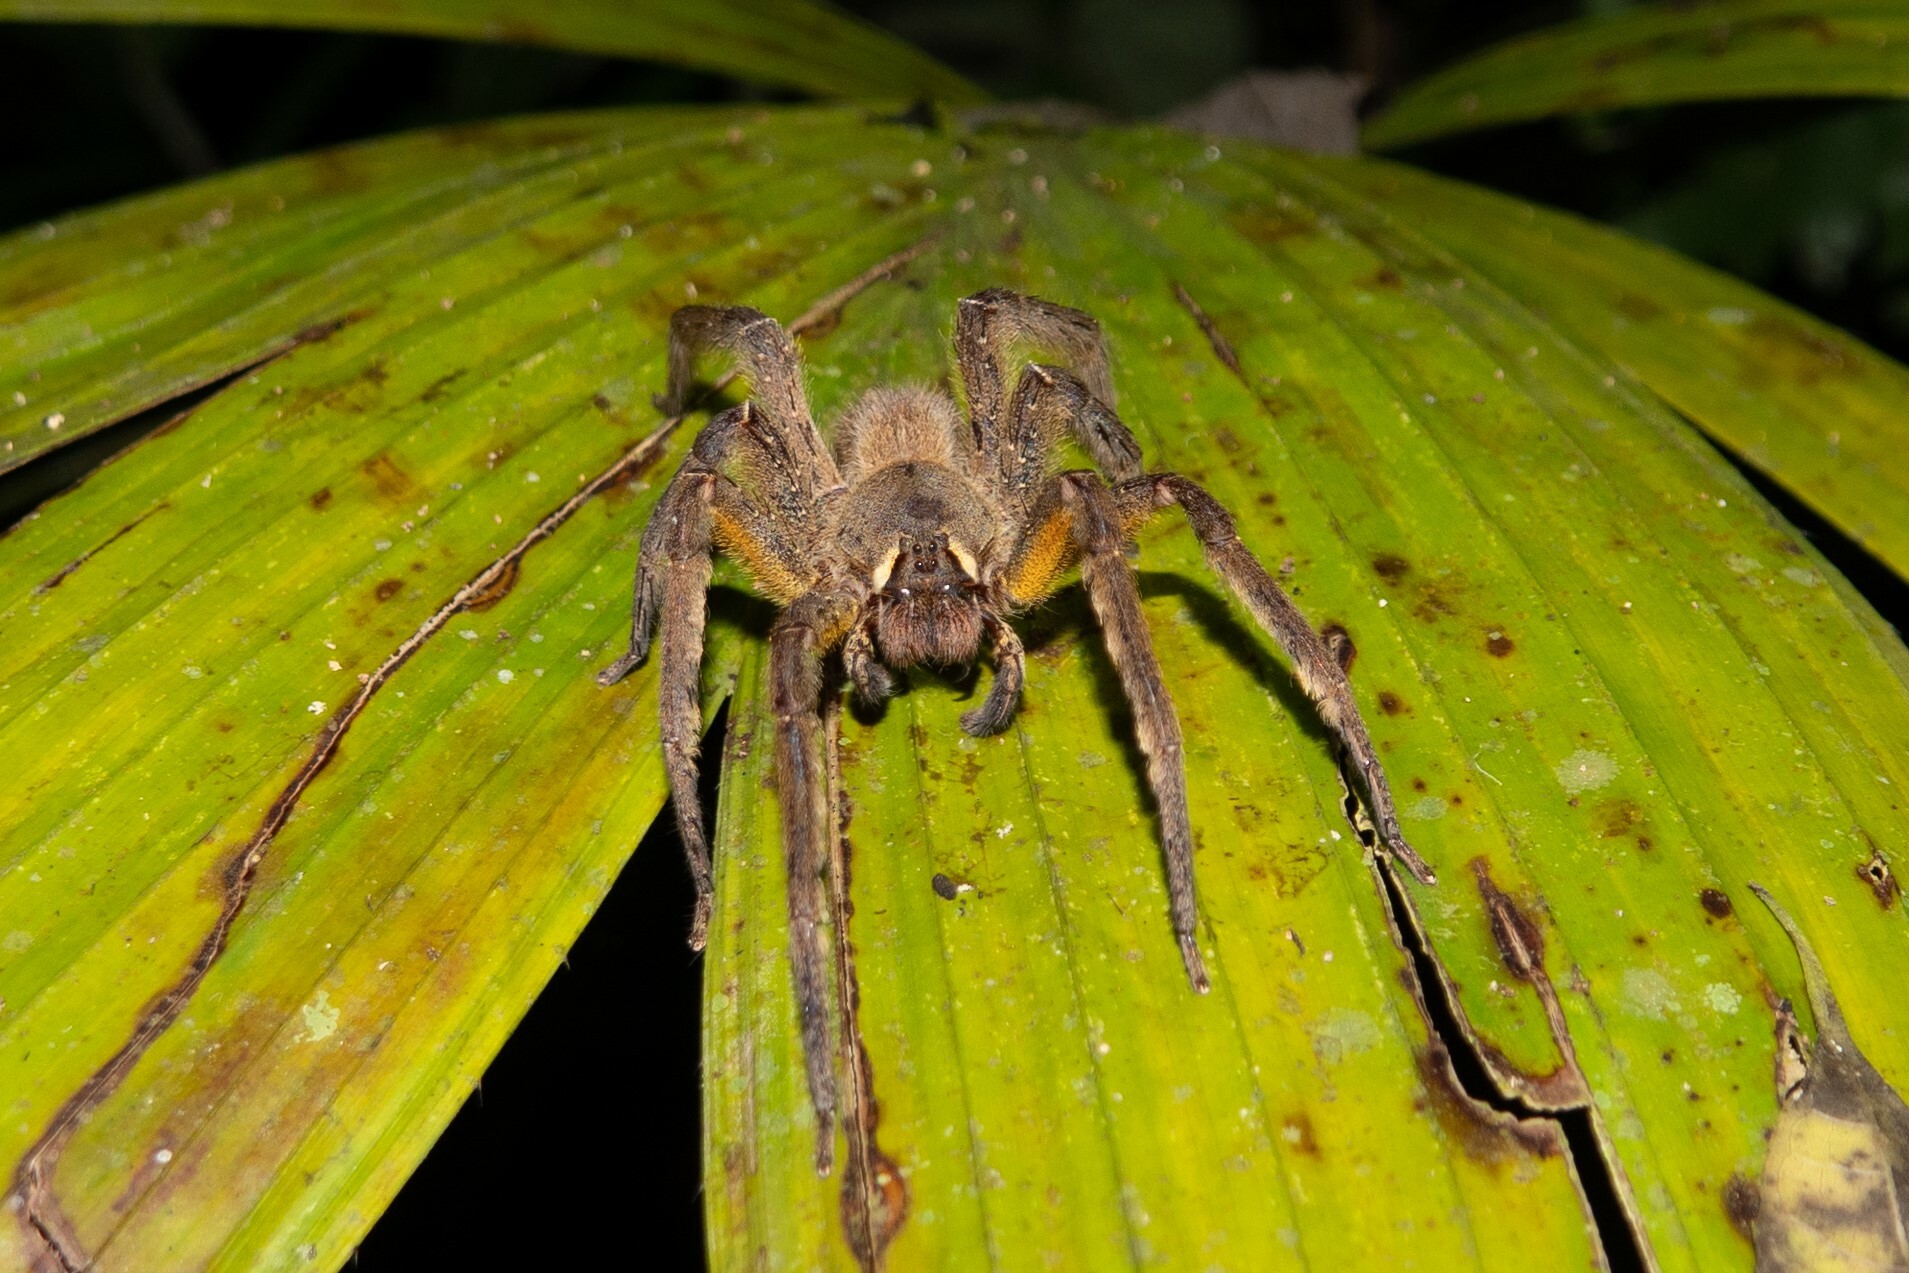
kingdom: Animalia
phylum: Arthropoda
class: Arachnida
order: Araneae
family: Ctenidae
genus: Phoneutria
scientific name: Phoneutria boliviensis
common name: Wandering spiders
